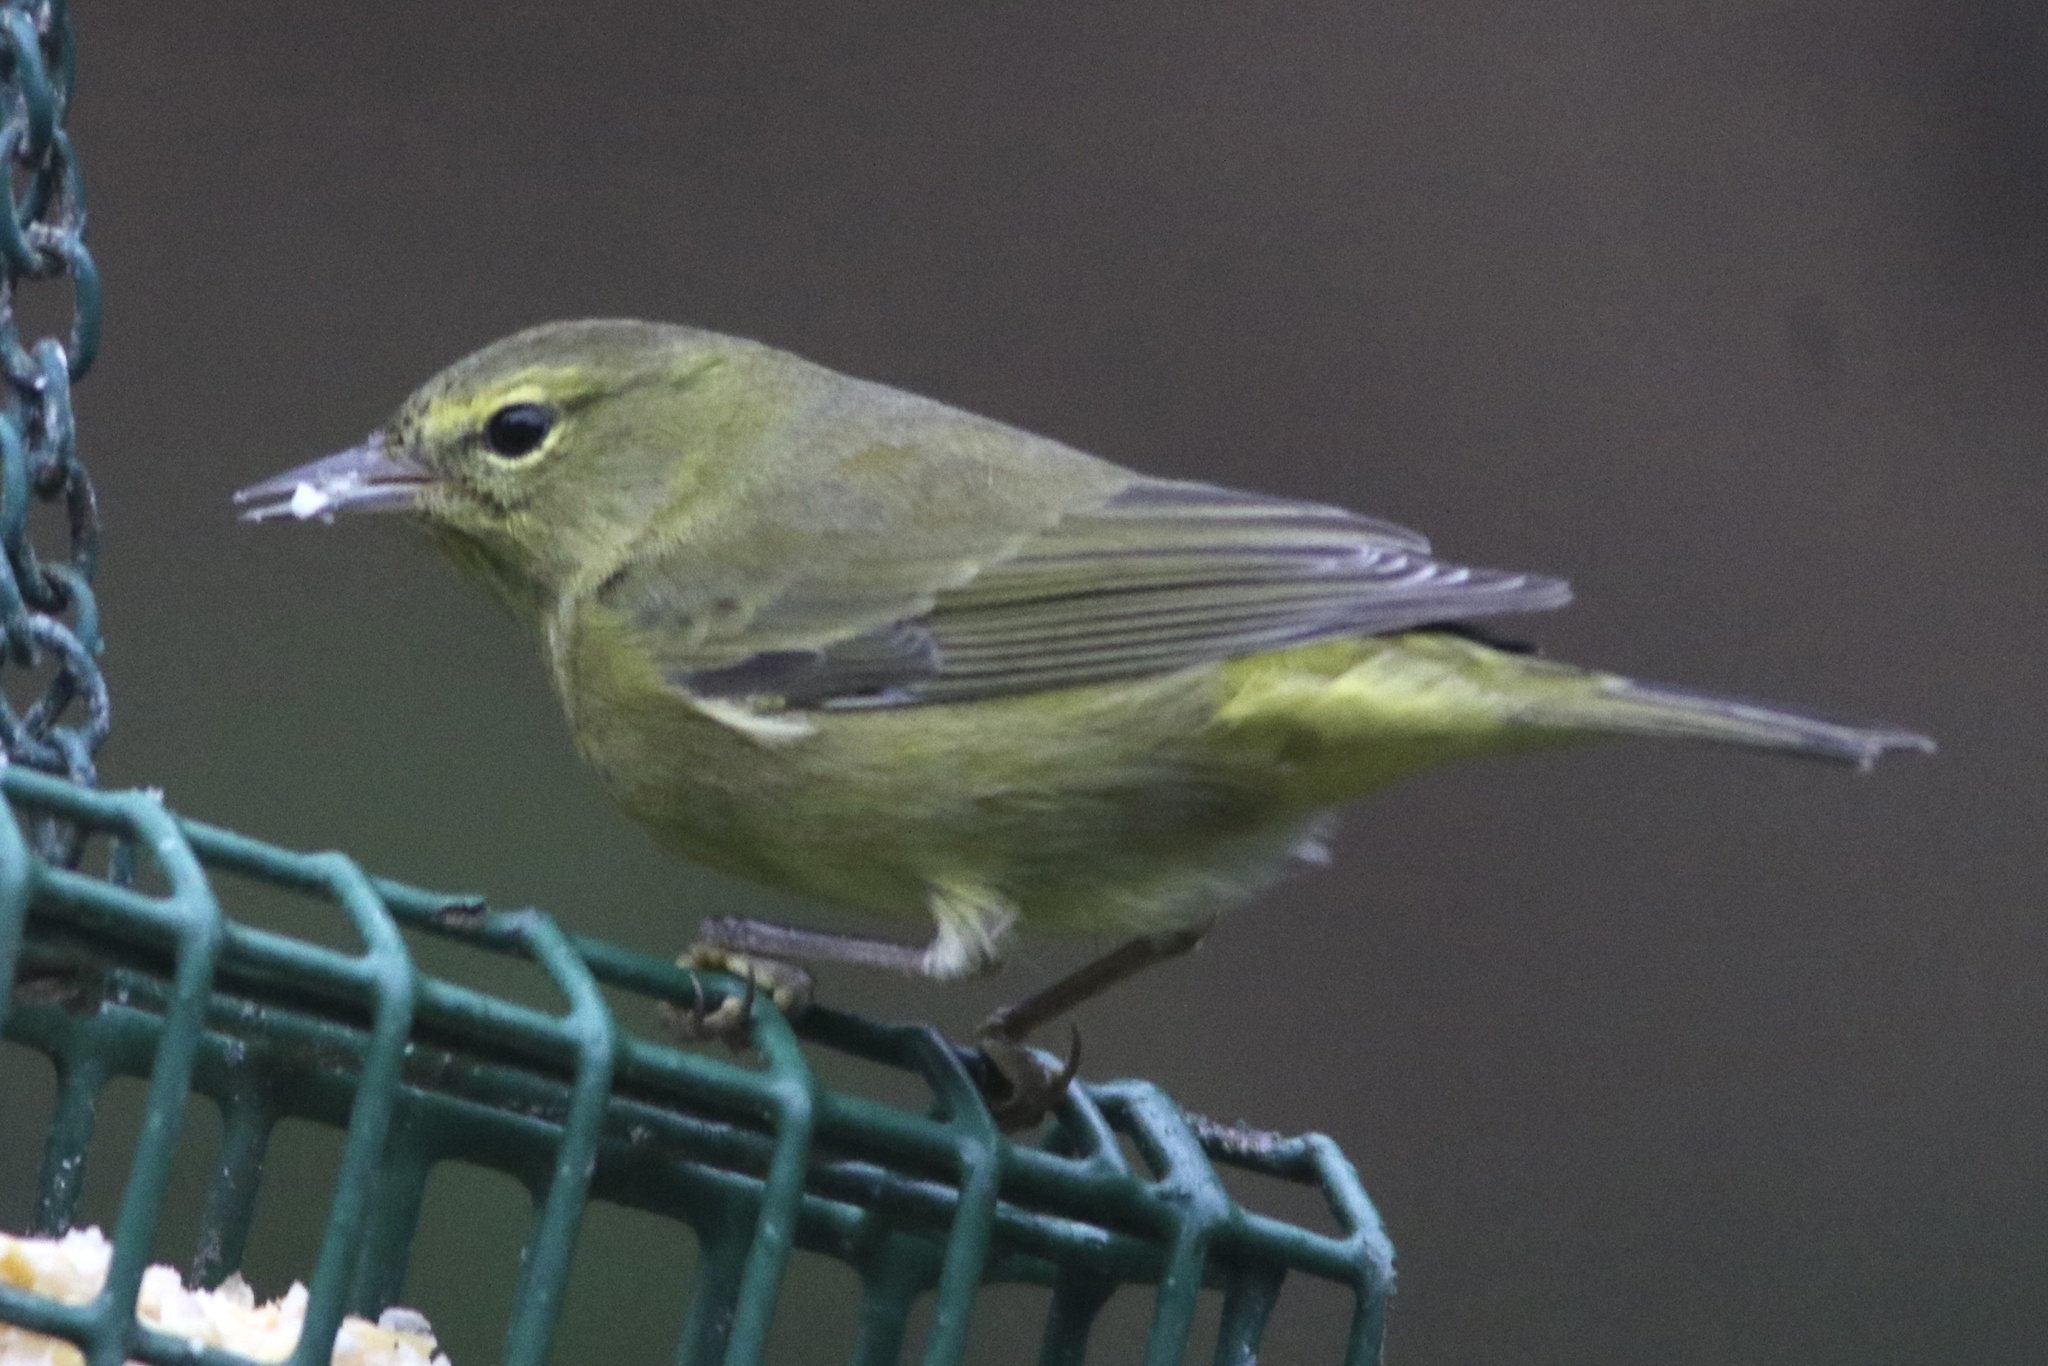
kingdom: Animalia
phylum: Chordata
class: Aves
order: Passeriformes
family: Parulidae
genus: Leiothlypis
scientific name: Leiothlypis celata
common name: Orange-crowned warbler
